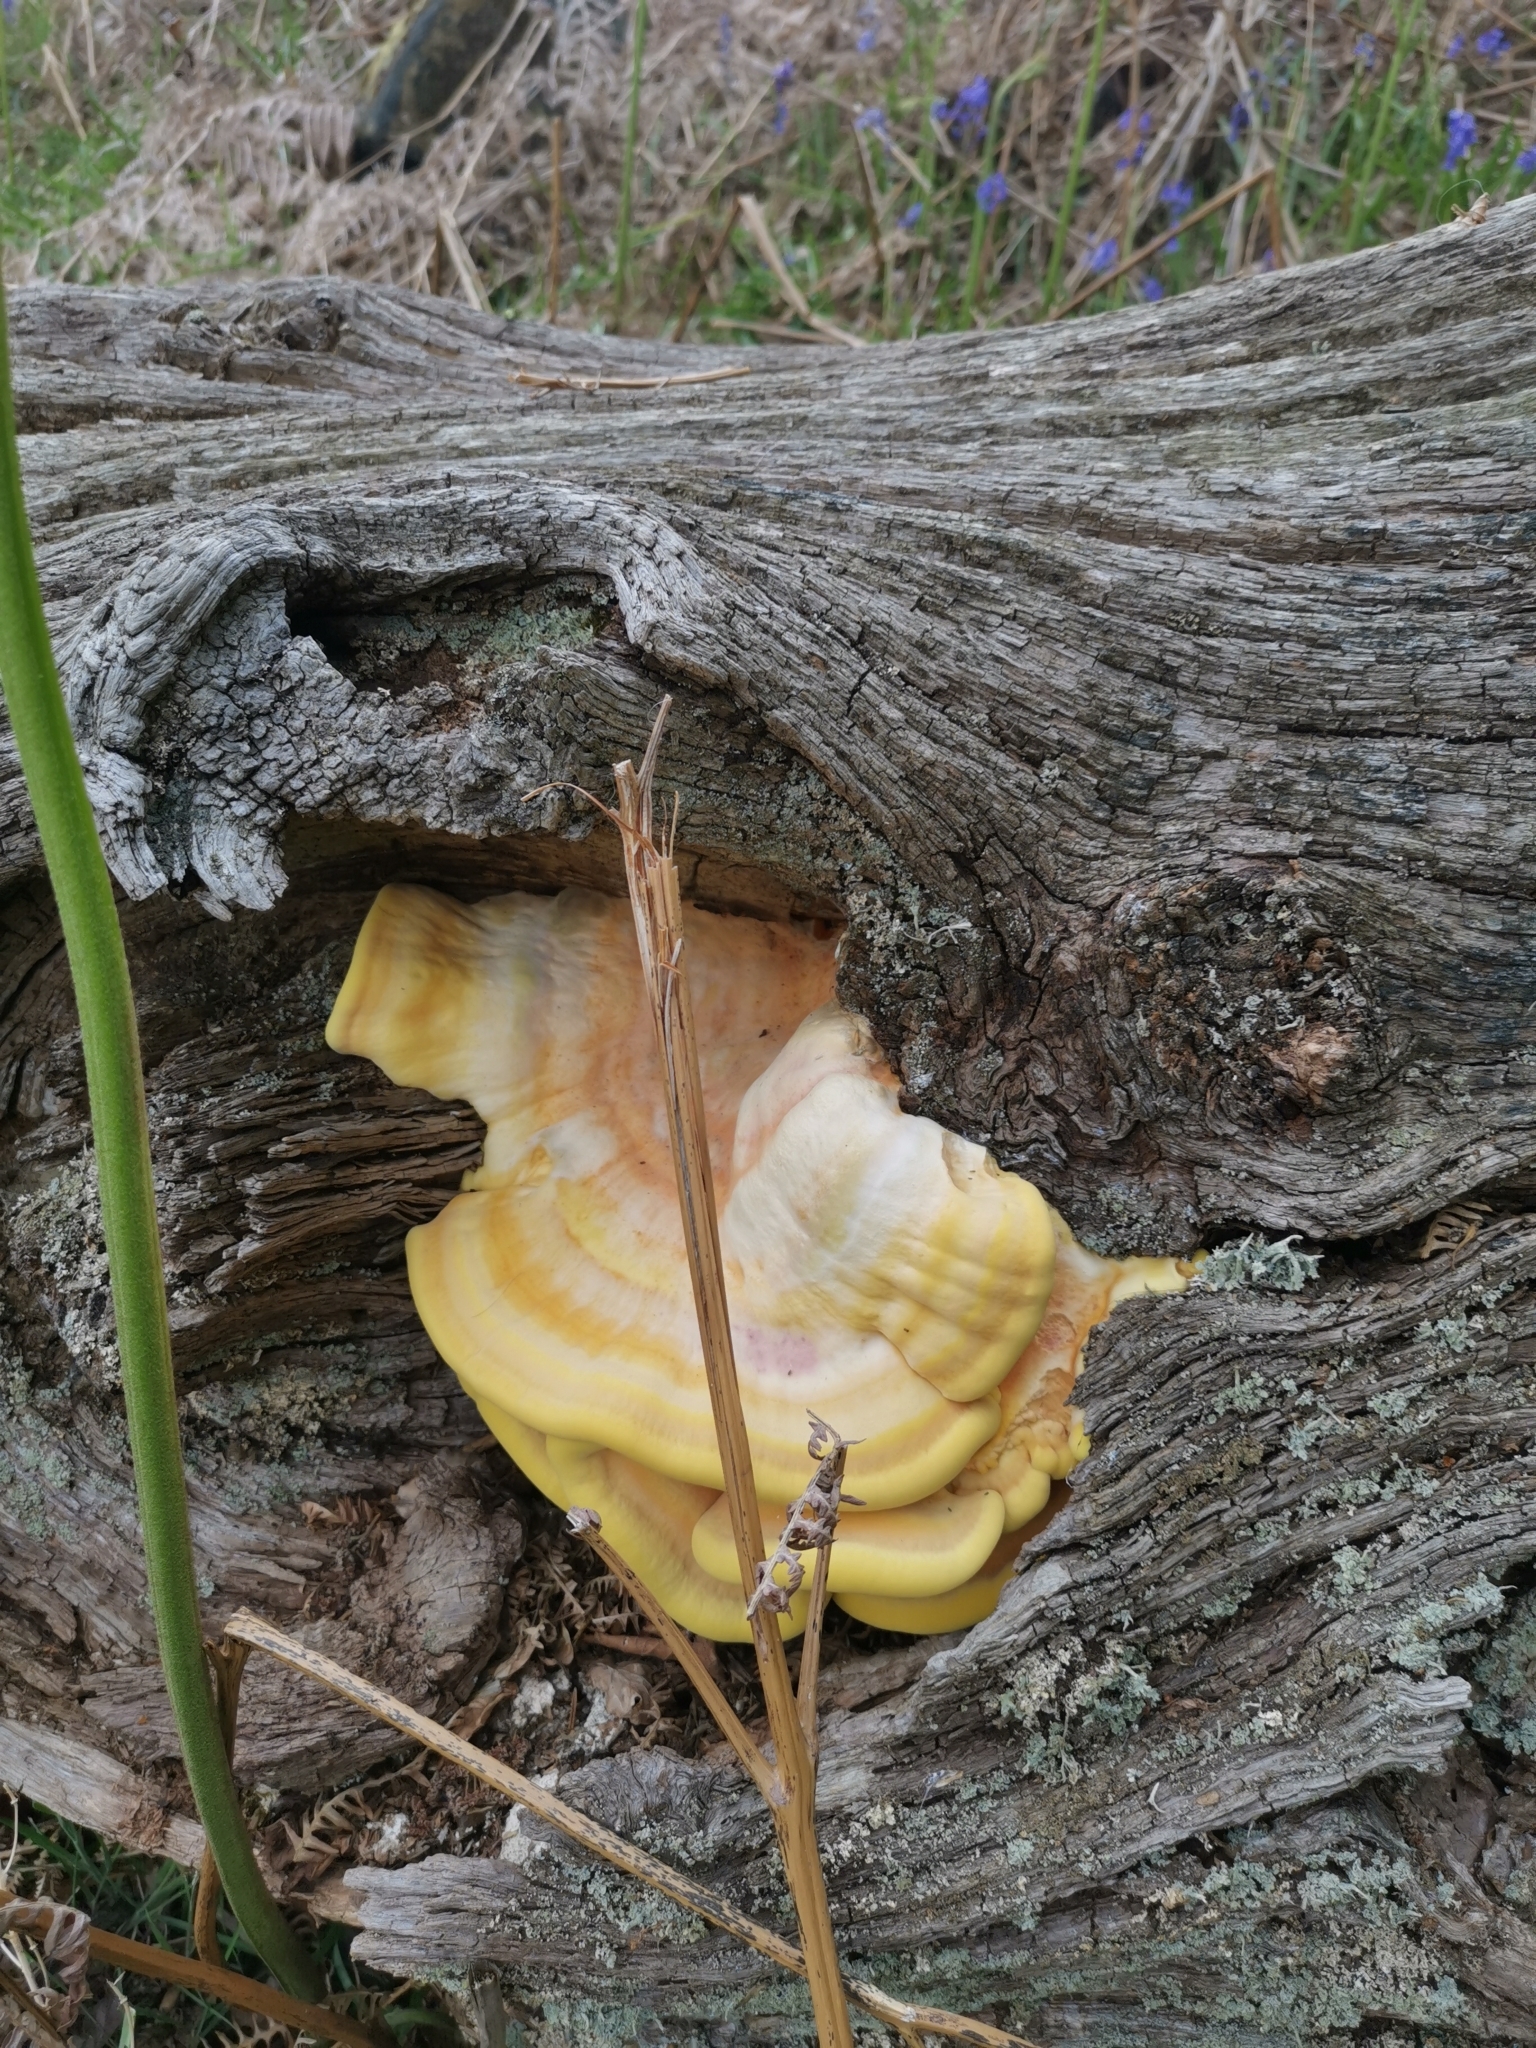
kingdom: Fungi
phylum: Basidiomycota
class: Agaricomycetes
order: Polyporales
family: Laetiporaceae
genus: Laetiporus
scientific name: Laetiporus sulphureus
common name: Chicken of the woods
